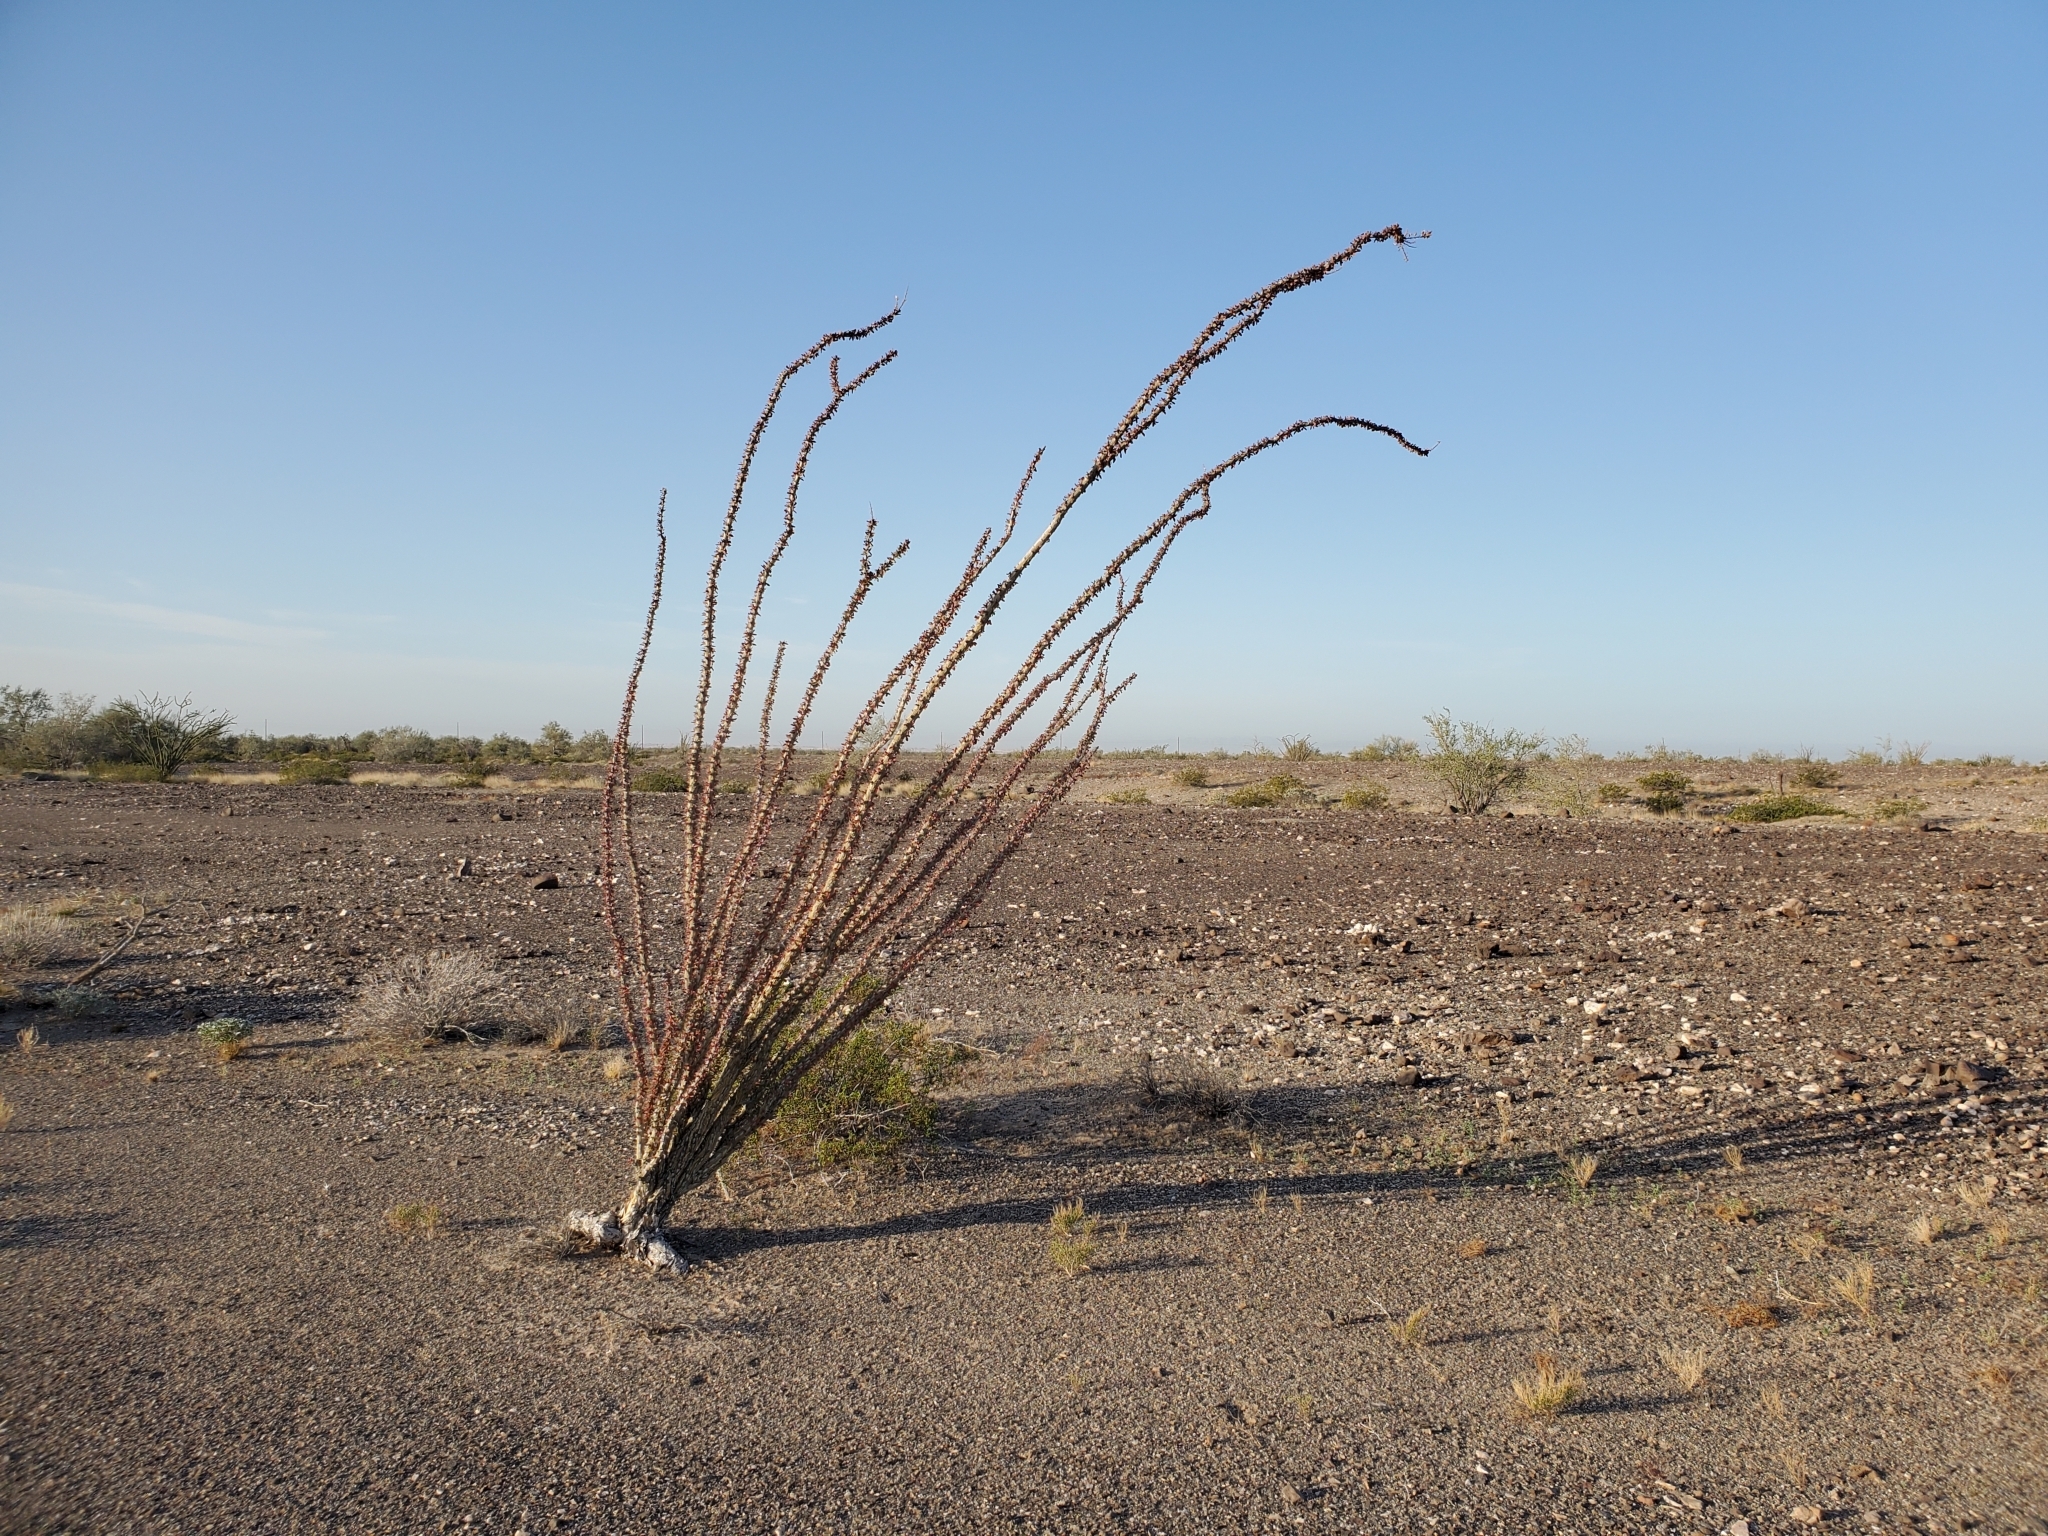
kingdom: Plantae
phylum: Tracheophyta
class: Magnoliopsida
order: Ericales
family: Fouquieriaceae
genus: Fouquieria
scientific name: Fouquieria splendens
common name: Vine-cactus
